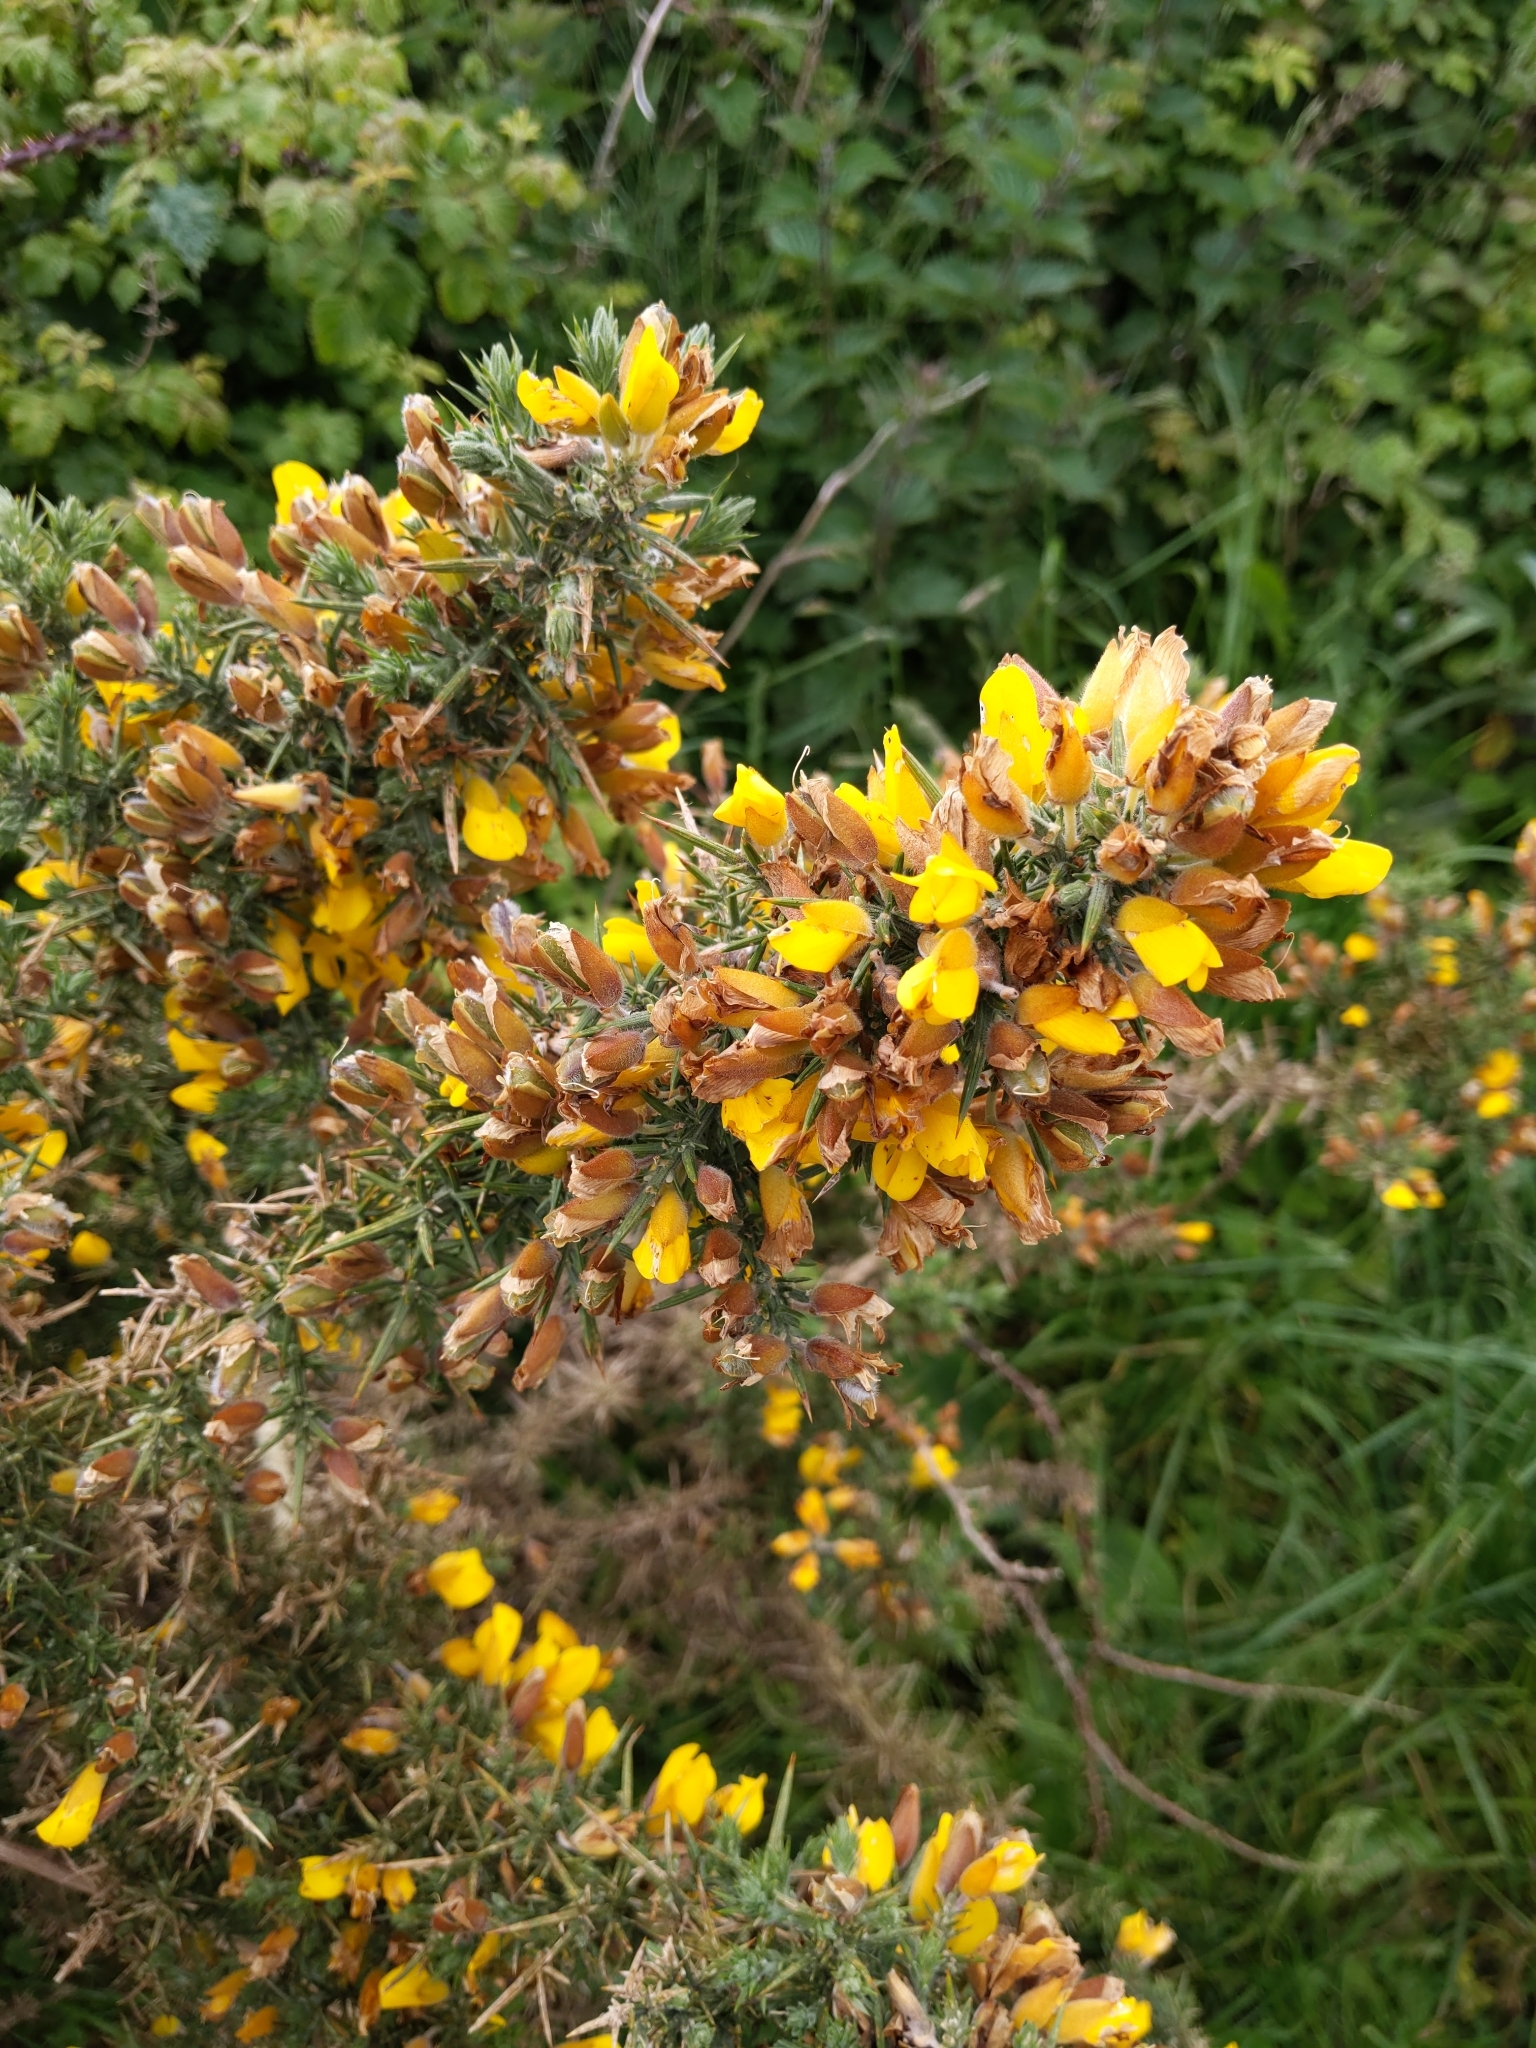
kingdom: Plantae
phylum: Tracheophyta
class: Magnoliopsida
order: Fabales
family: Fabaceae
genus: Ulex
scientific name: Ulex europaeus
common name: Common gorse
